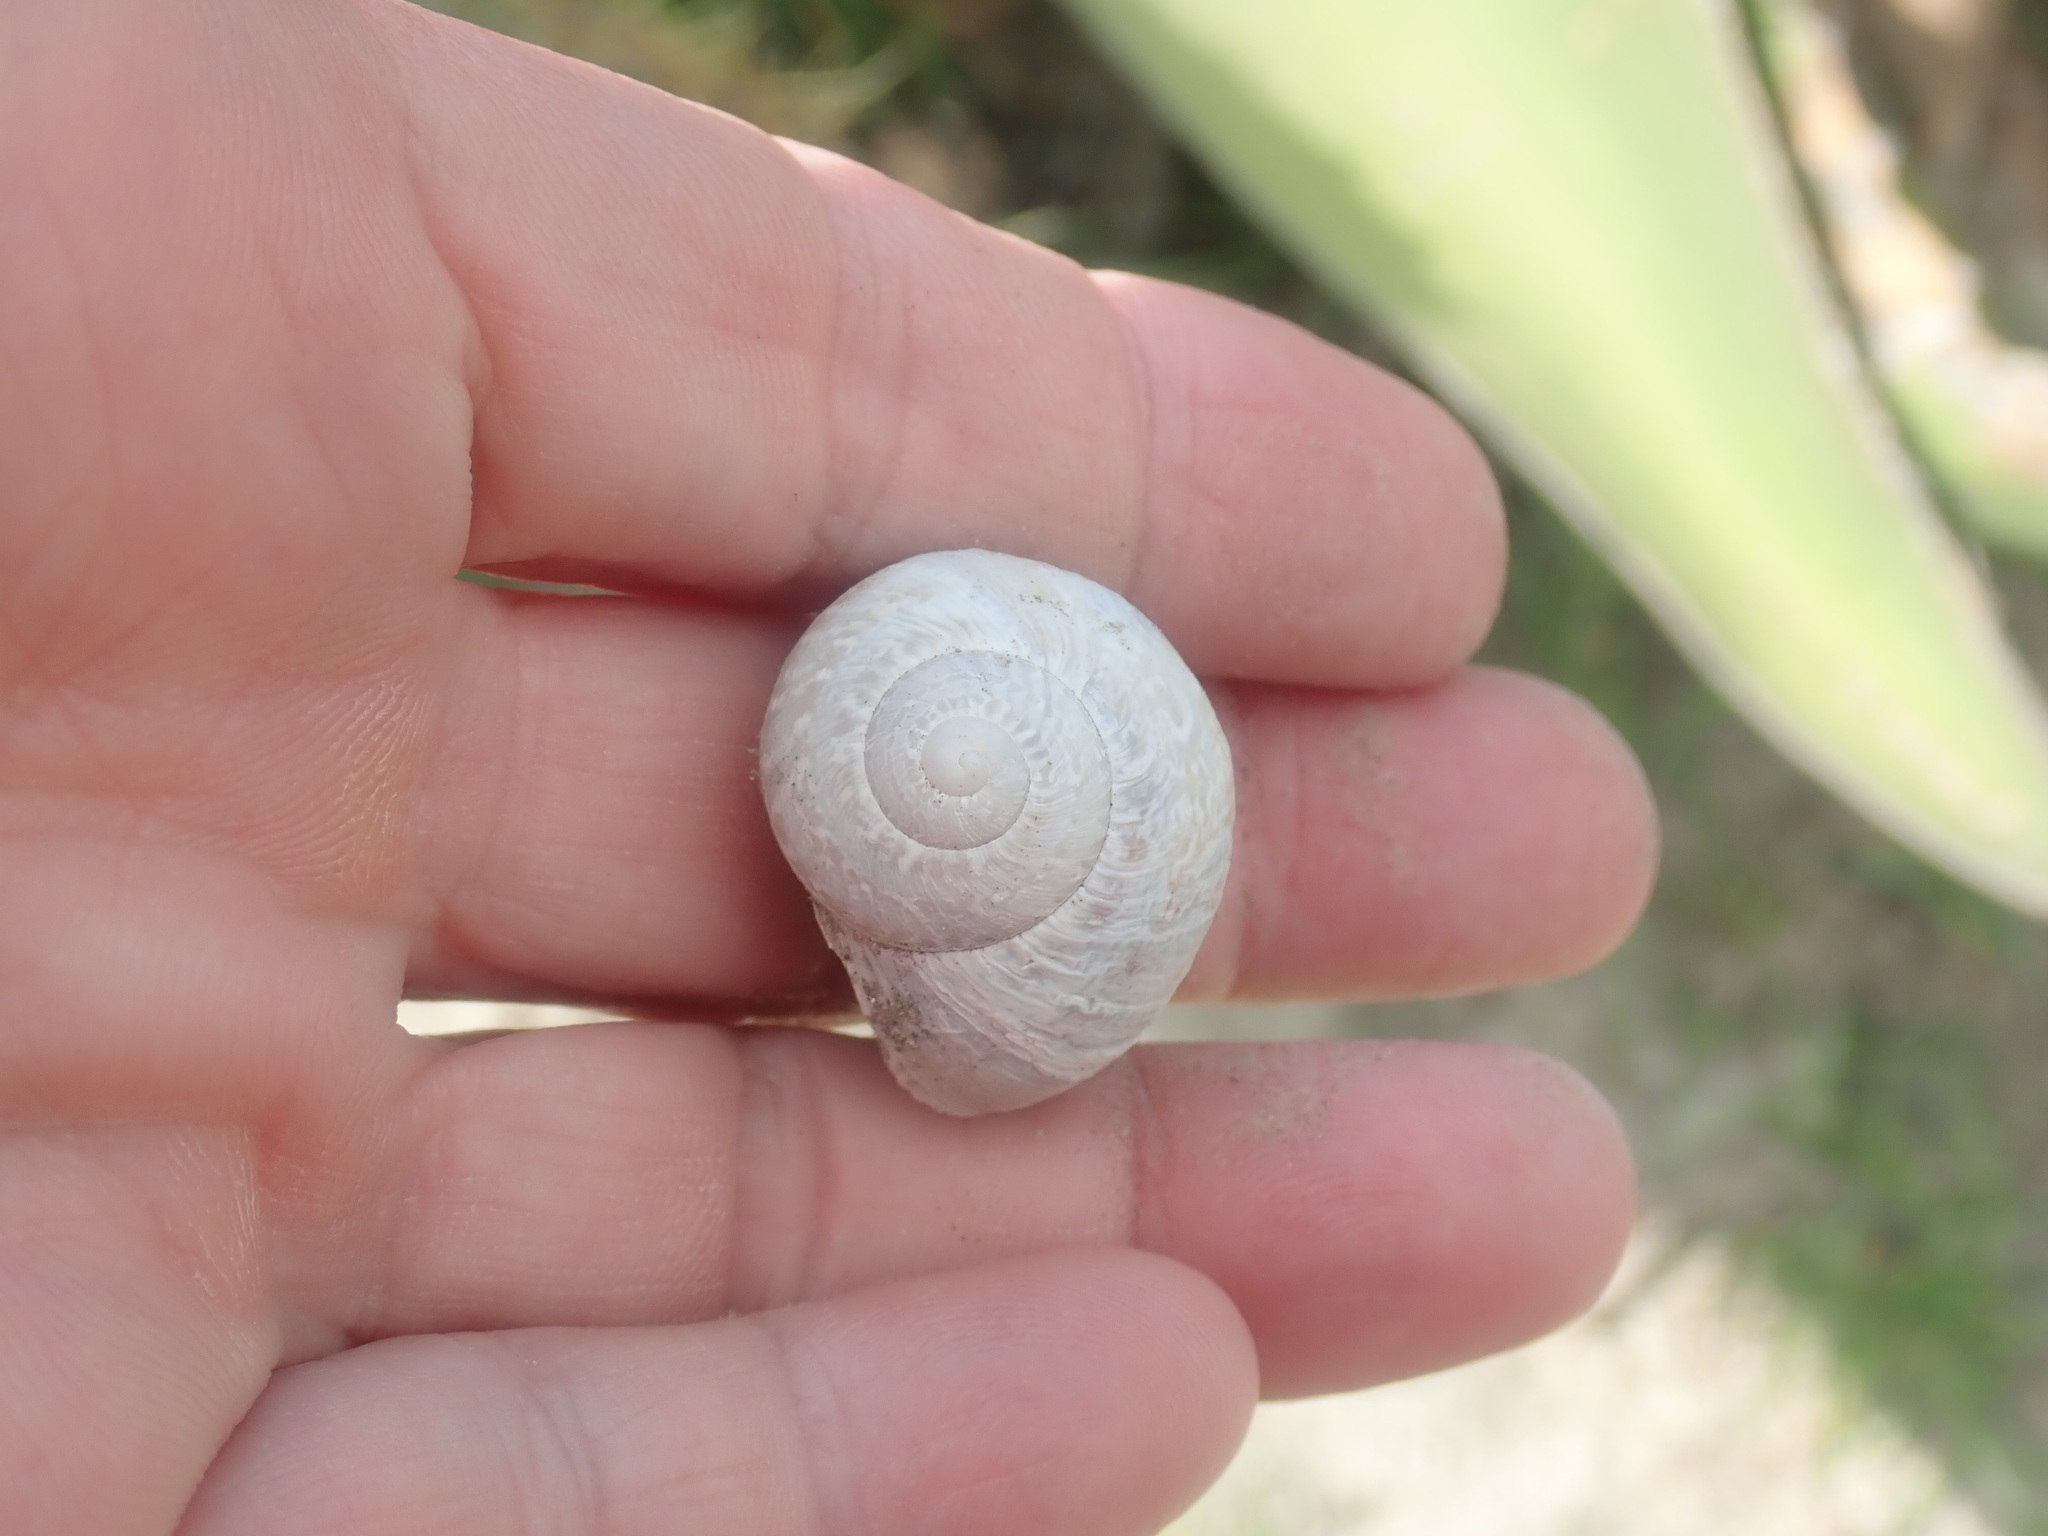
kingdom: Animalia
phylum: Mollusca
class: Gastropoda
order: Stylommatophora
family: Helicidae
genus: Cornu
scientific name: Cornu aspersum
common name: Brown garden snail
